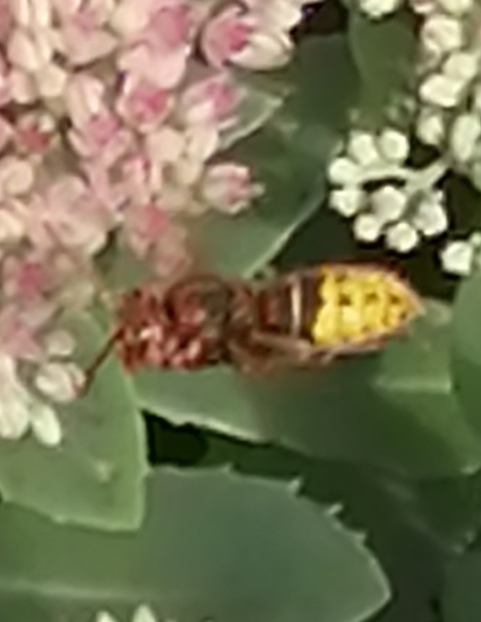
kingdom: Animalia
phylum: Arthropoda
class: Insecta
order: Hymenoptera
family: Vespidae
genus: Vespa
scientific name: Vespa crabro
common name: Hornet
